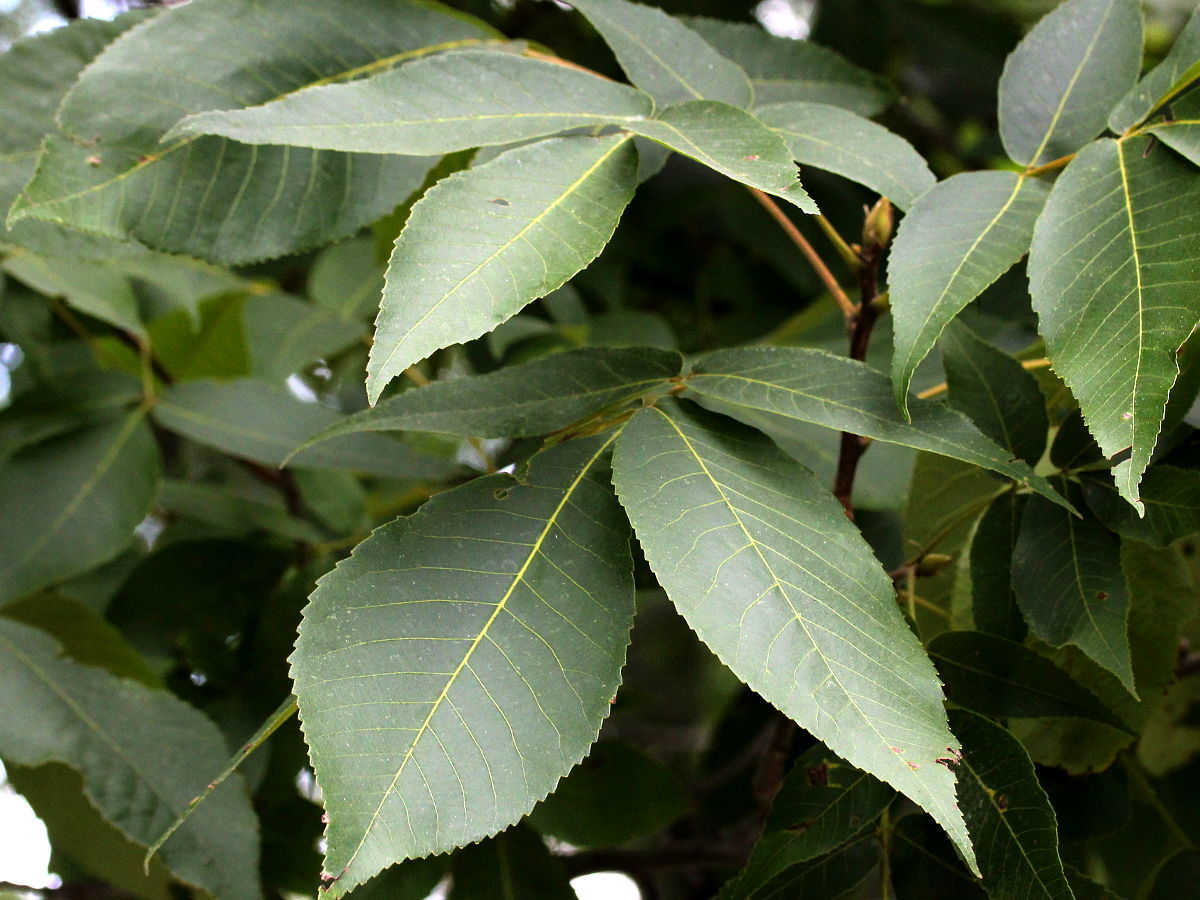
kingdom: Plantae
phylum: Tracheophyta
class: Magnoliopsida
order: Fagales
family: Juglandaceae
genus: Carya
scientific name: Carya ovata
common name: Shagbark hickory
